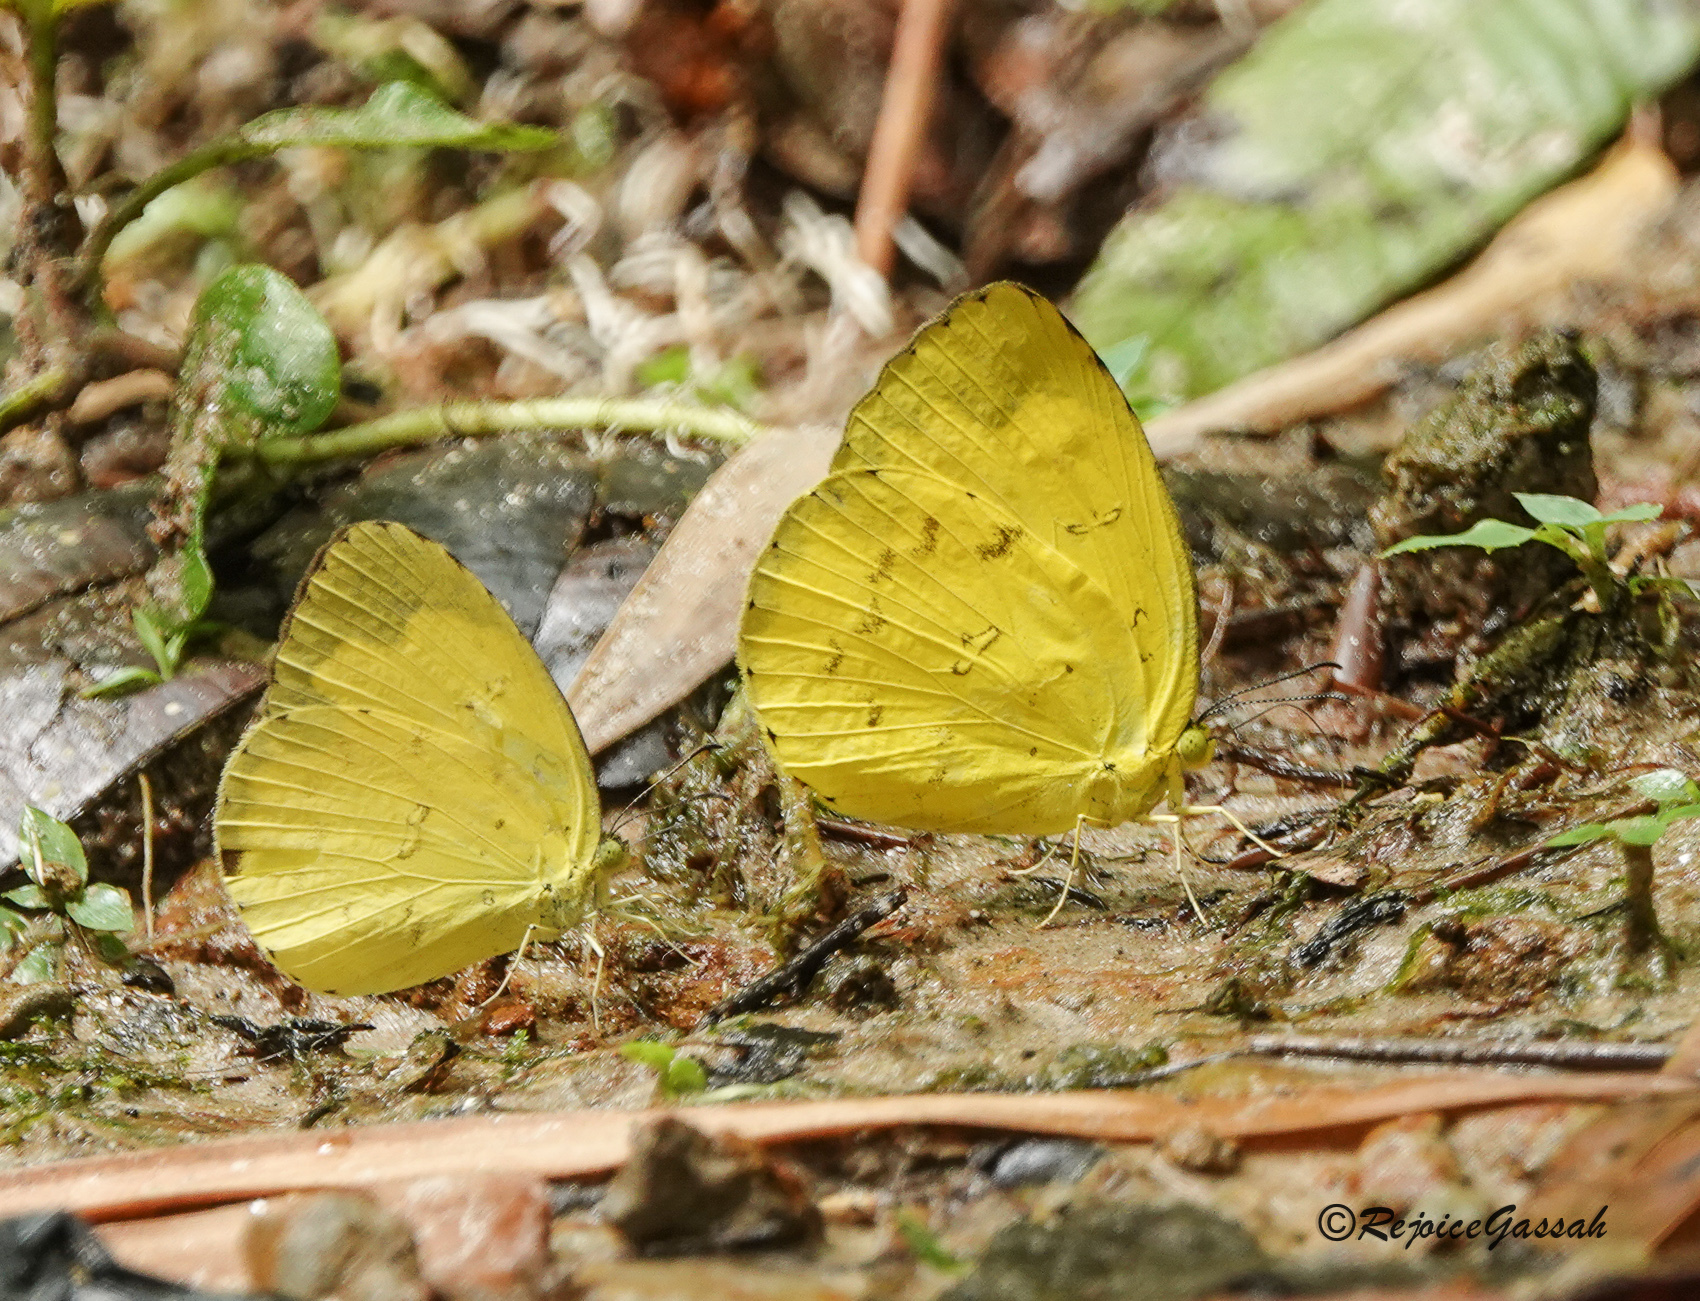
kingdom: Animalia
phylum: Arthropoda
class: Insecta
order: Lepidoptera
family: Pieridae
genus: Eurema
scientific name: Eurema hecabe
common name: Pale grass yellow
